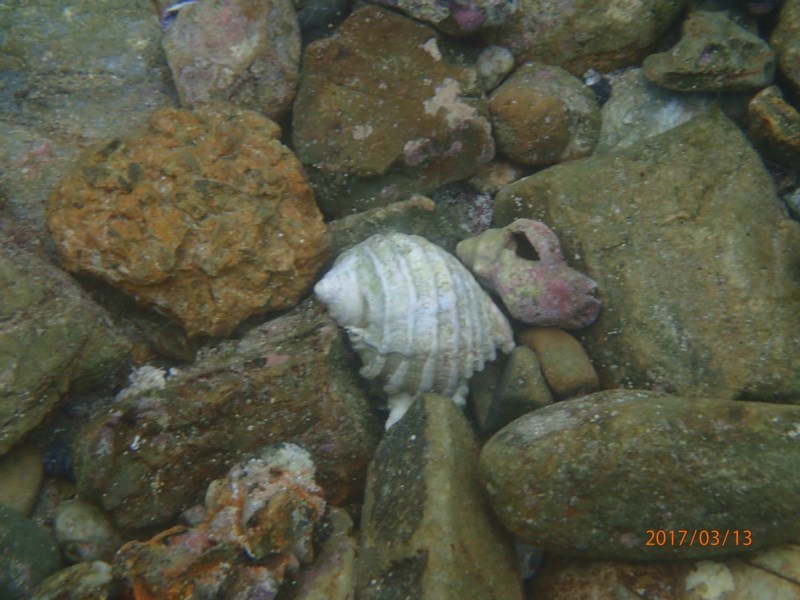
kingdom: Animalia
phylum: Mollusca
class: Gastropoda
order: Neogastropoda
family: Muricidae
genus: Dicathais
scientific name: Dicathais orbita
